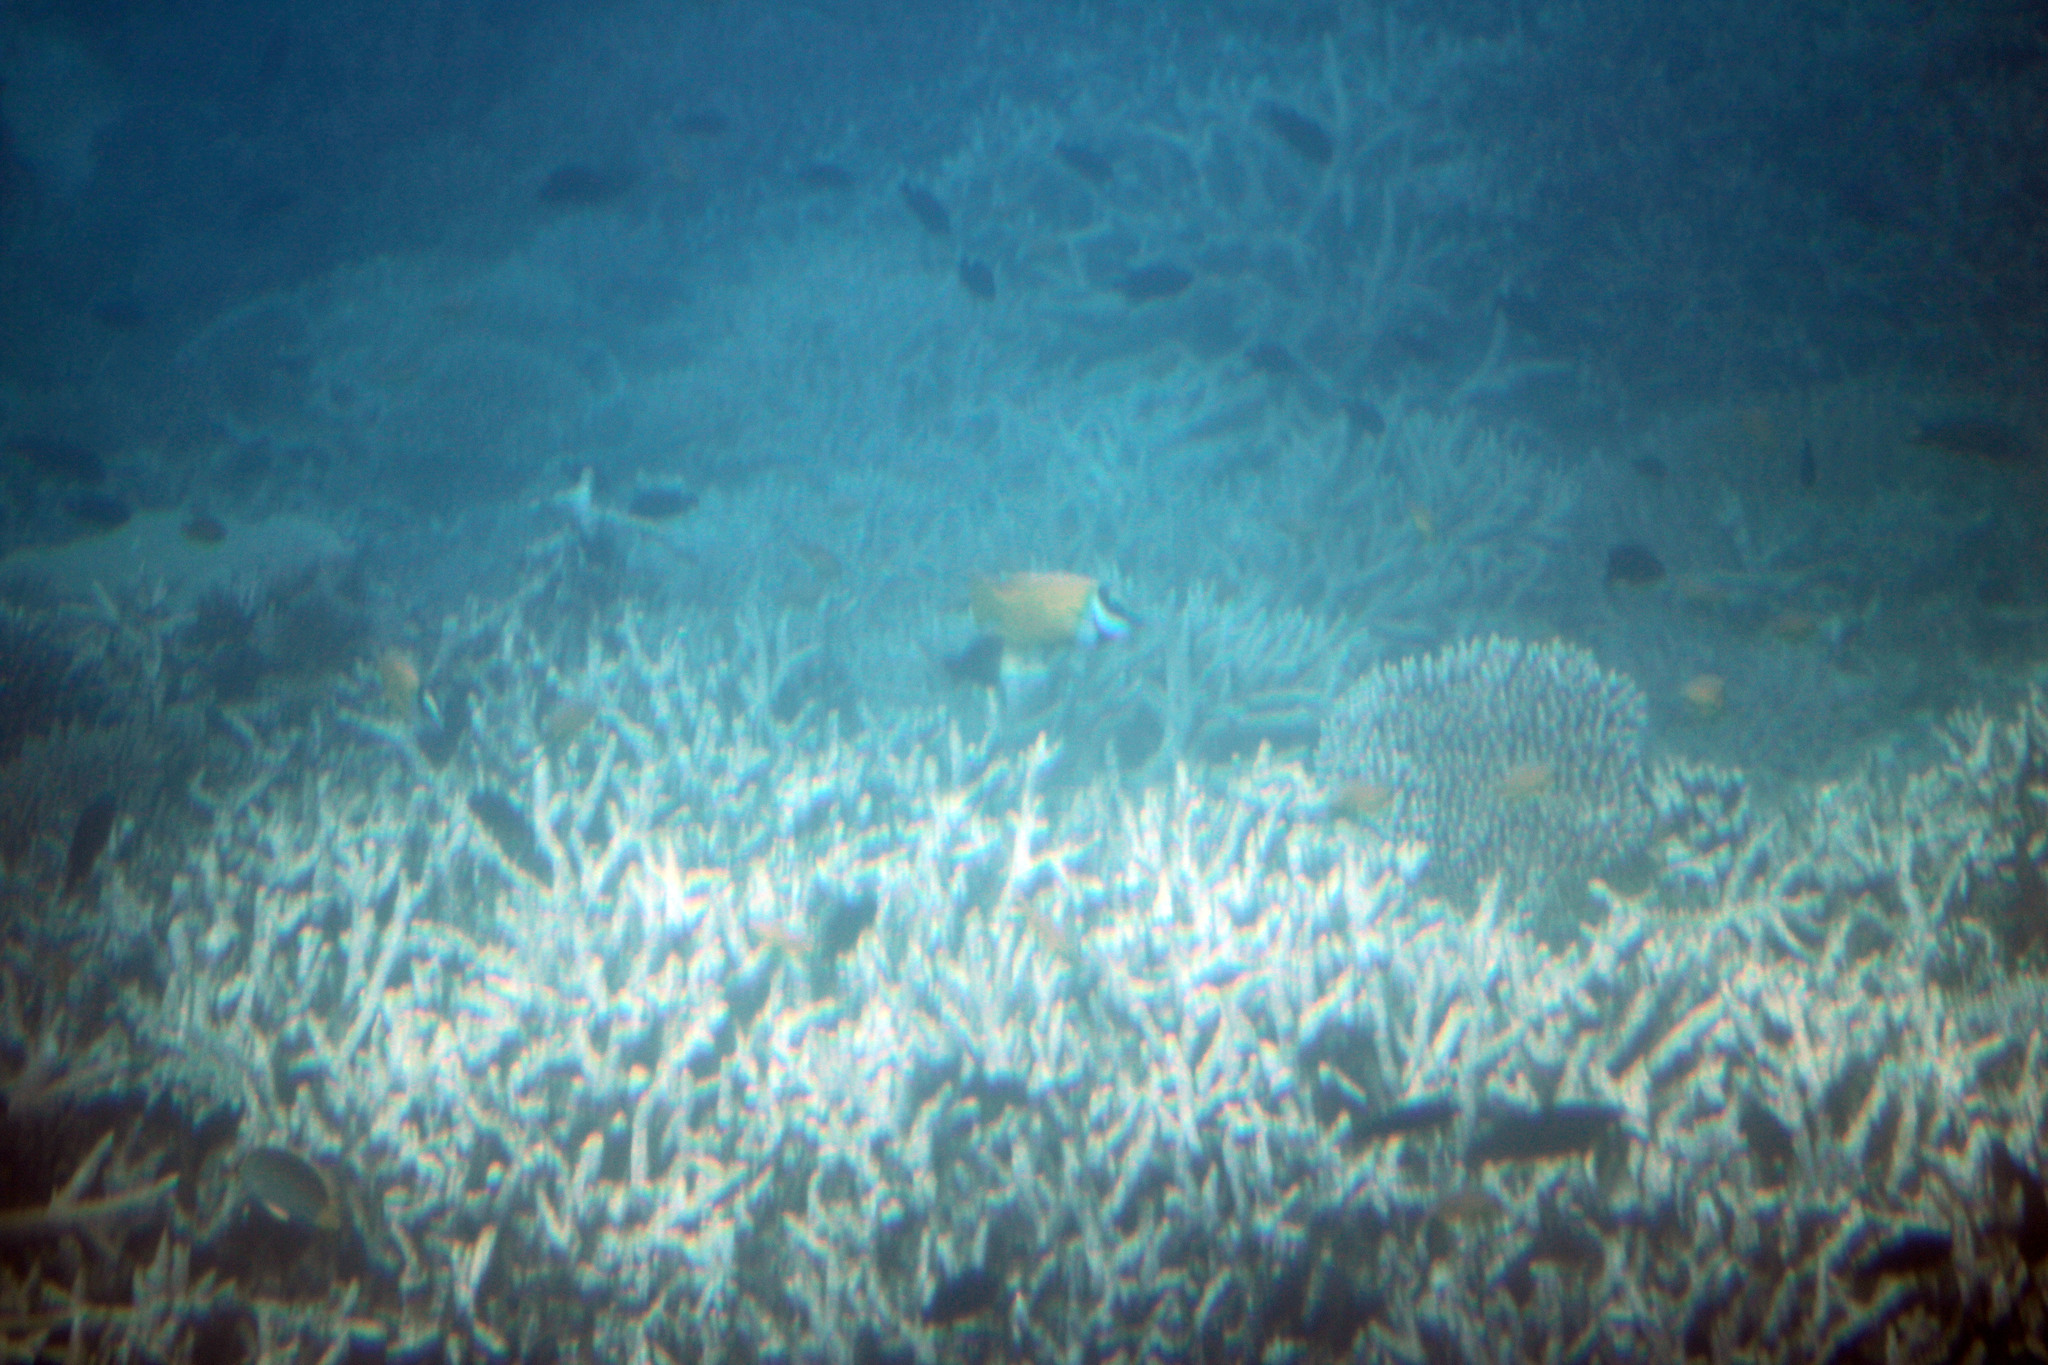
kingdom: Animalia
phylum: Chordata
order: Perciformes
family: Siganidae
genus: Siganus
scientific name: Siganus vulpinus
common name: Foxface
